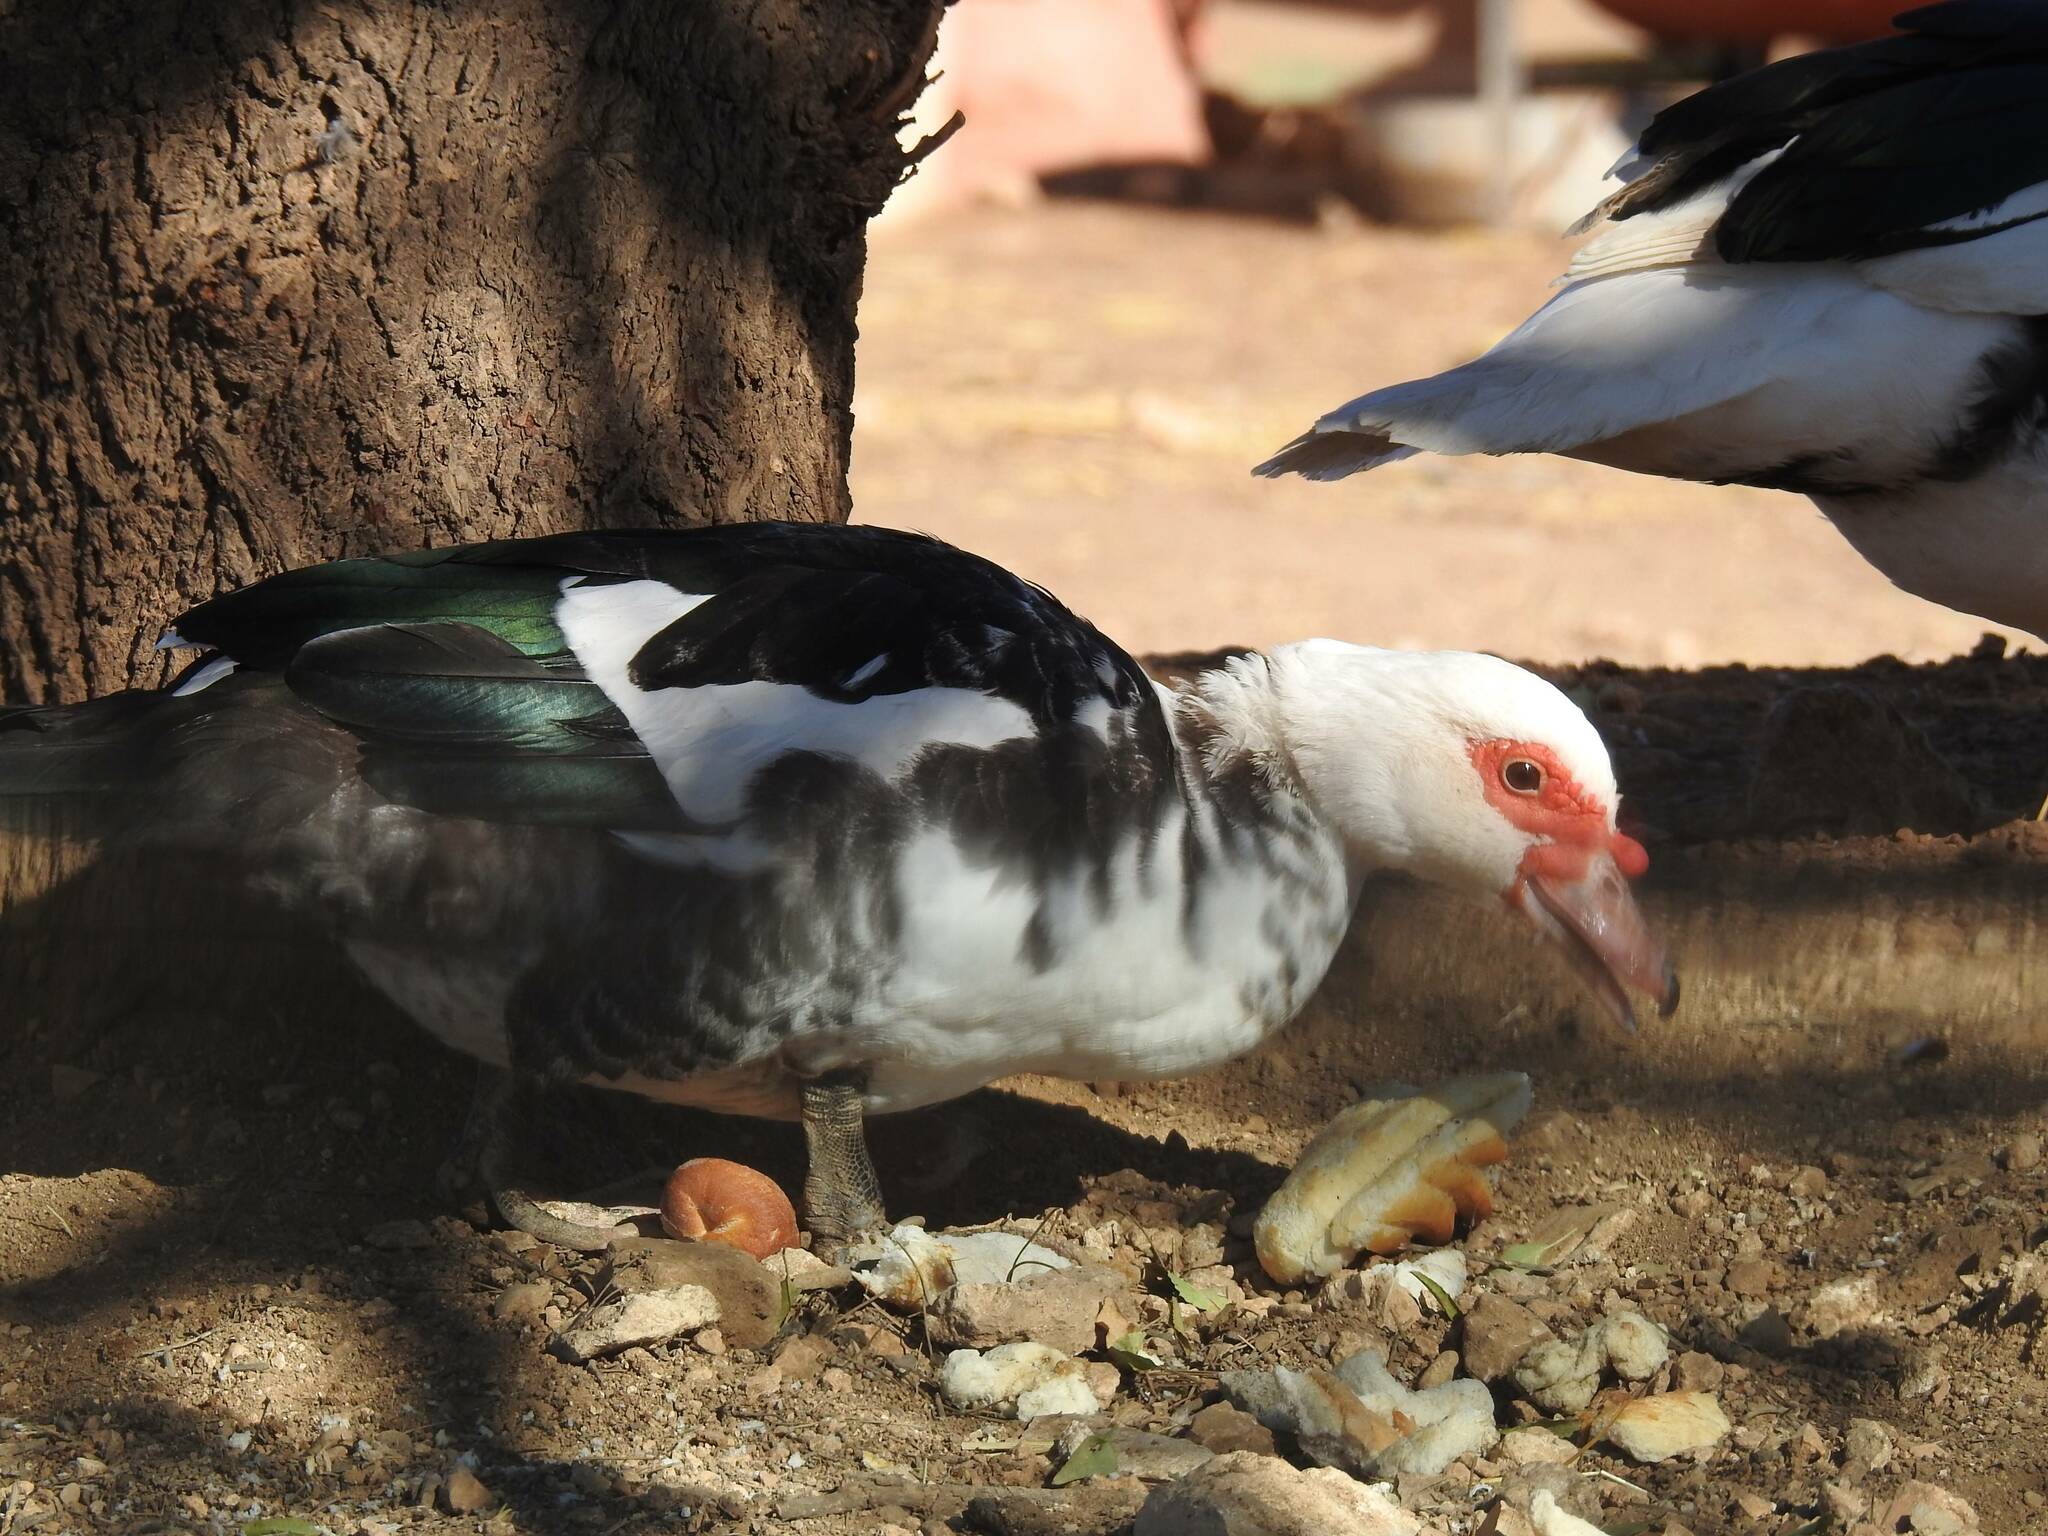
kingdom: Animalia
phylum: Chordata
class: Aves
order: Anseriformes
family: Anatidae
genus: Cairina
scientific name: Cairina moschata
